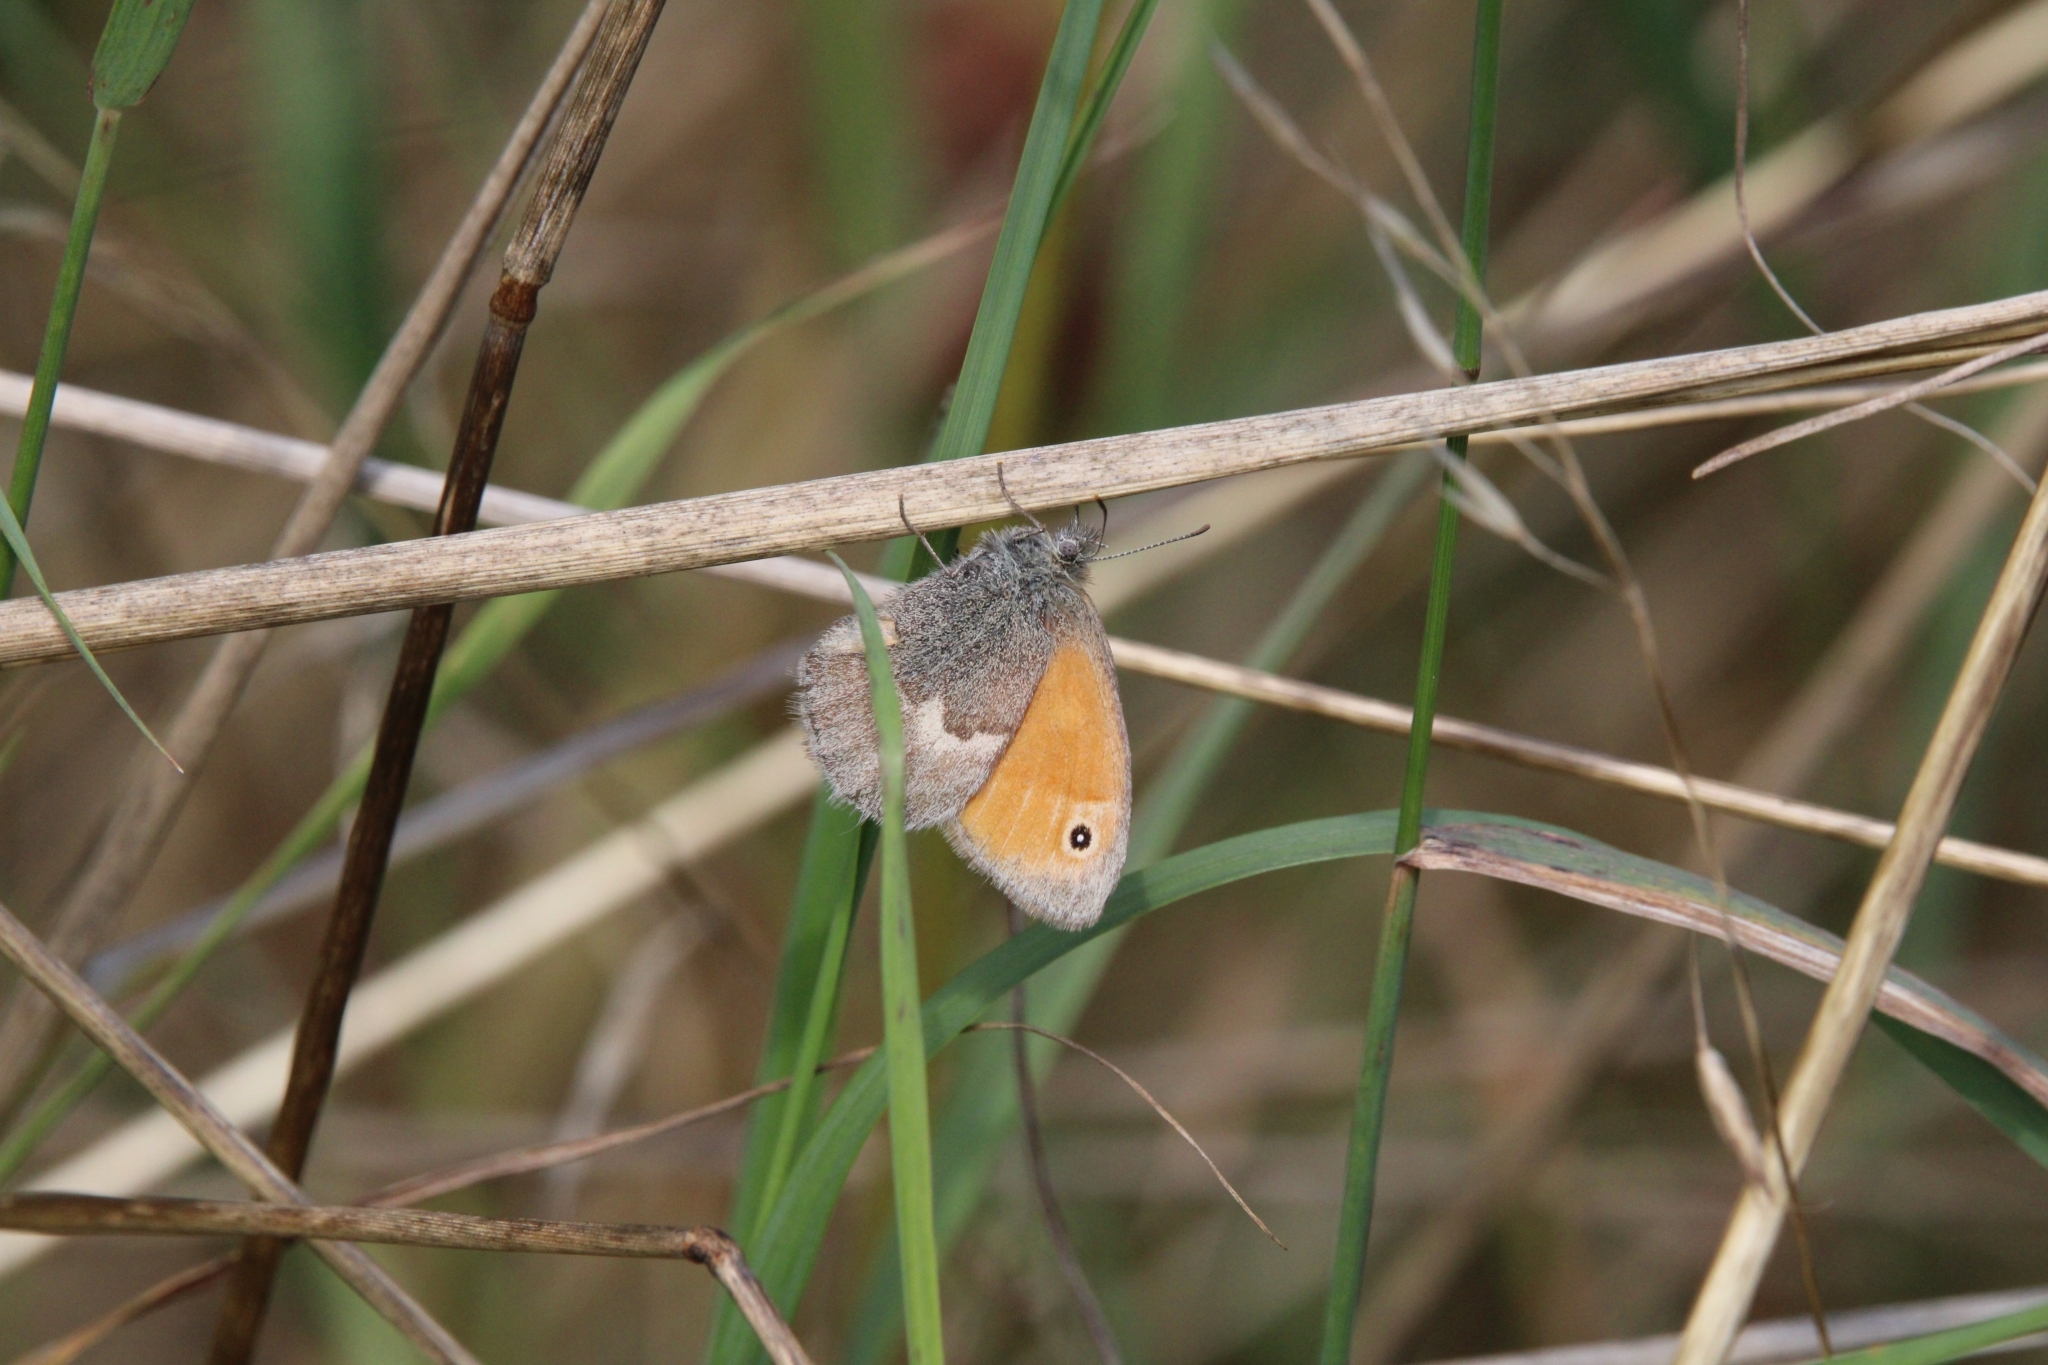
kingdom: Animalia
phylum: Arthropoda
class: Insecta
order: Lepidoptera
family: Nymphalidae
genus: Coenonympha
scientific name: Coenonympha pamphilus
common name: Small heath
